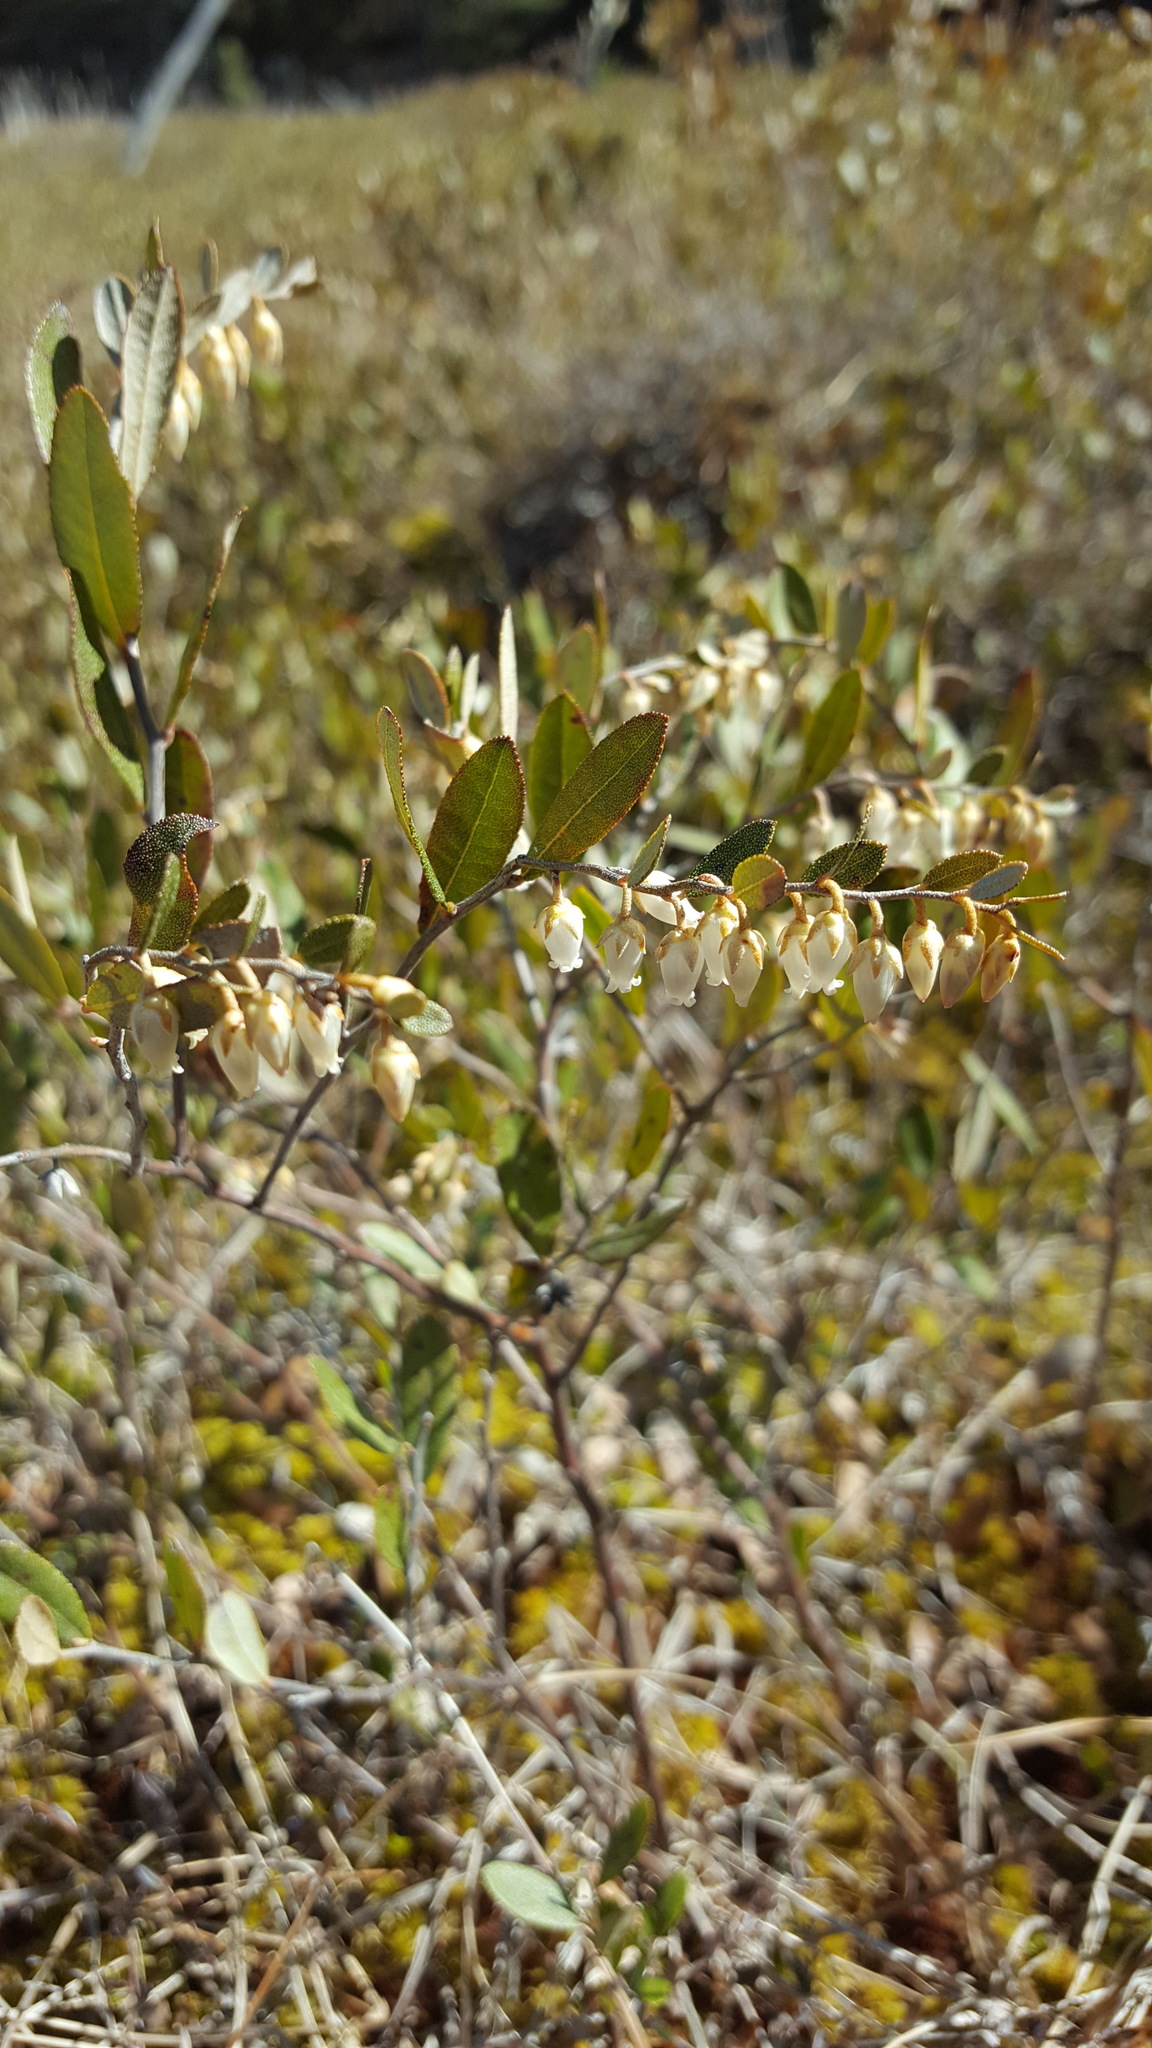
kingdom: Plantae
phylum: Tracheophyta
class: Magnoliopsida
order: Ericales
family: Ericaceae
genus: Chamaedaphne
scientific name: Chamaedaphne calyculata
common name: Leatherleaf
